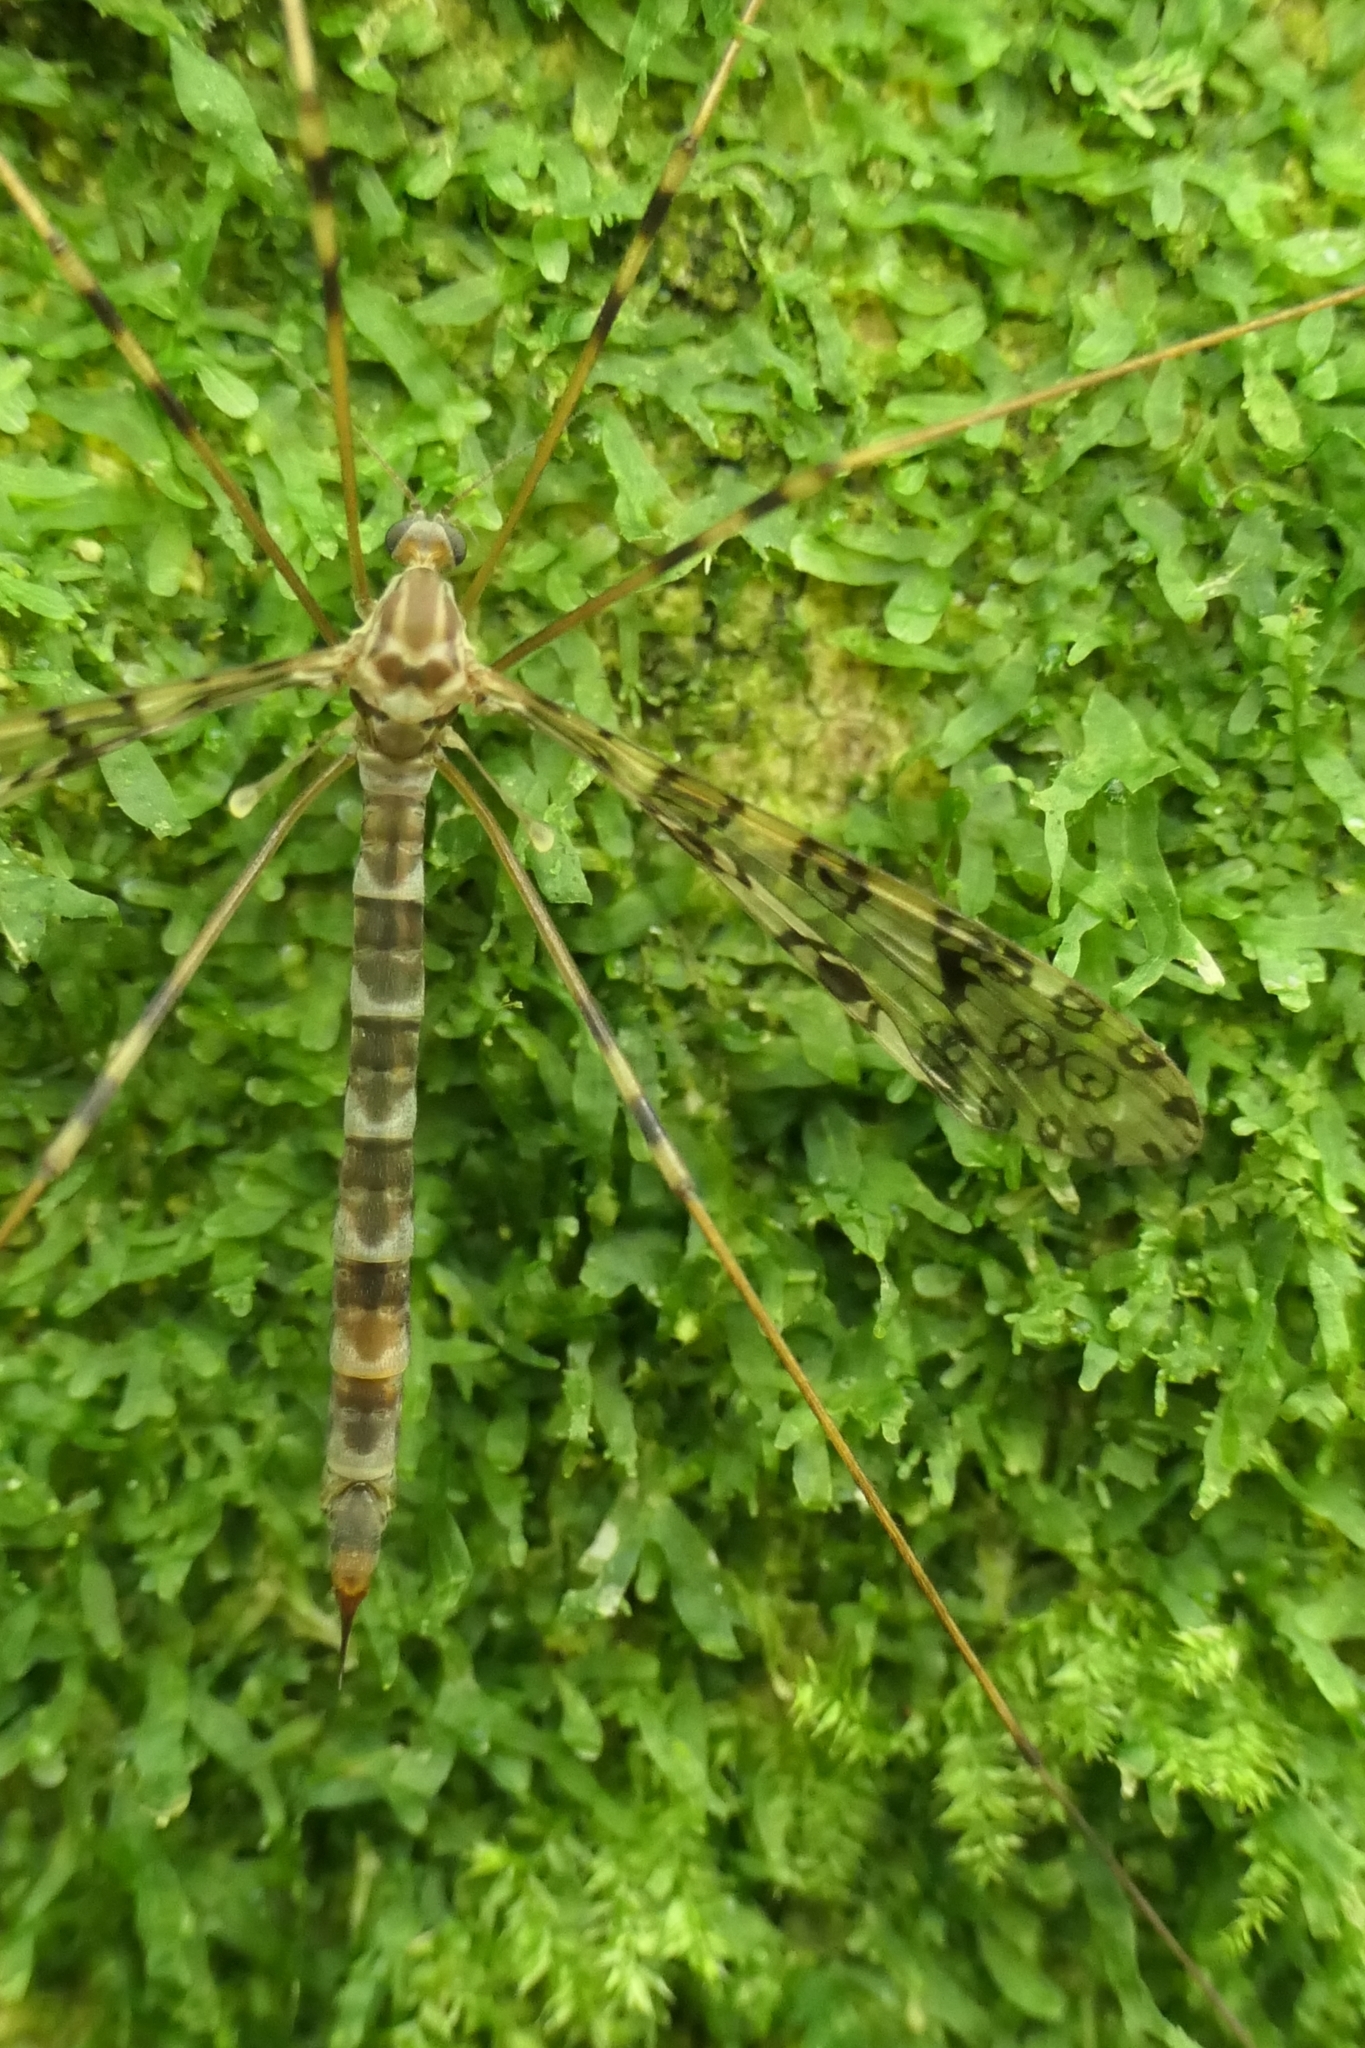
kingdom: Animalia
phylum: Arthropoda
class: Insecta
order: Diptera
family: Limoniidae
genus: Austrolimnophila
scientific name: Austrolimnophila argus
